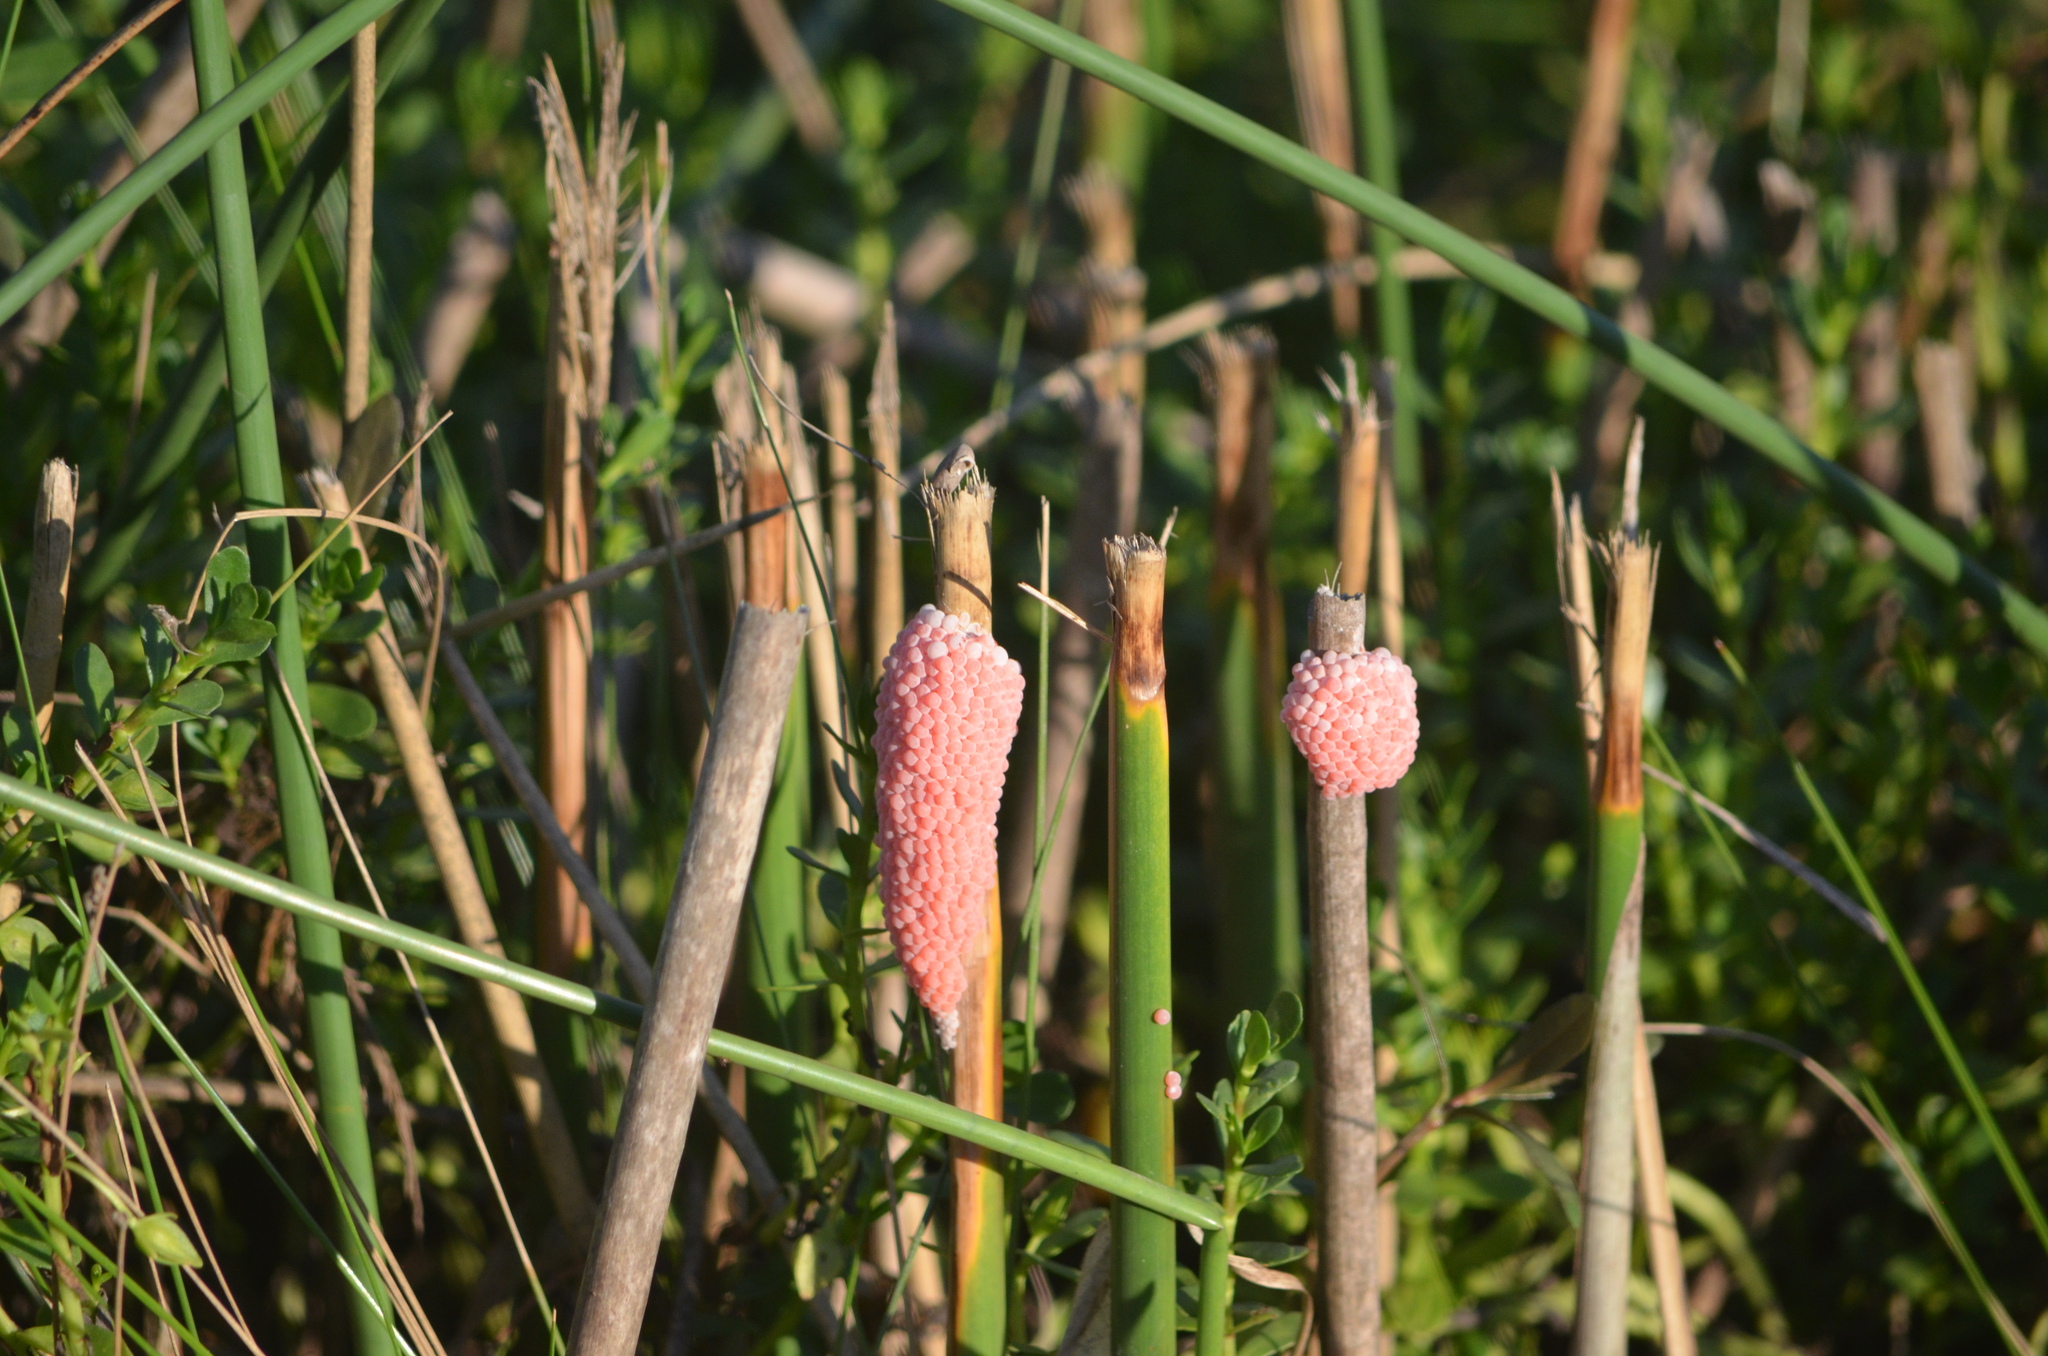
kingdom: Animalia
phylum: Mollusca
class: Gastropoda
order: Architaenioglossa
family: Ampullariidae
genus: Pomacea
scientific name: Pomacea maculata
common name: Giant applesnail
